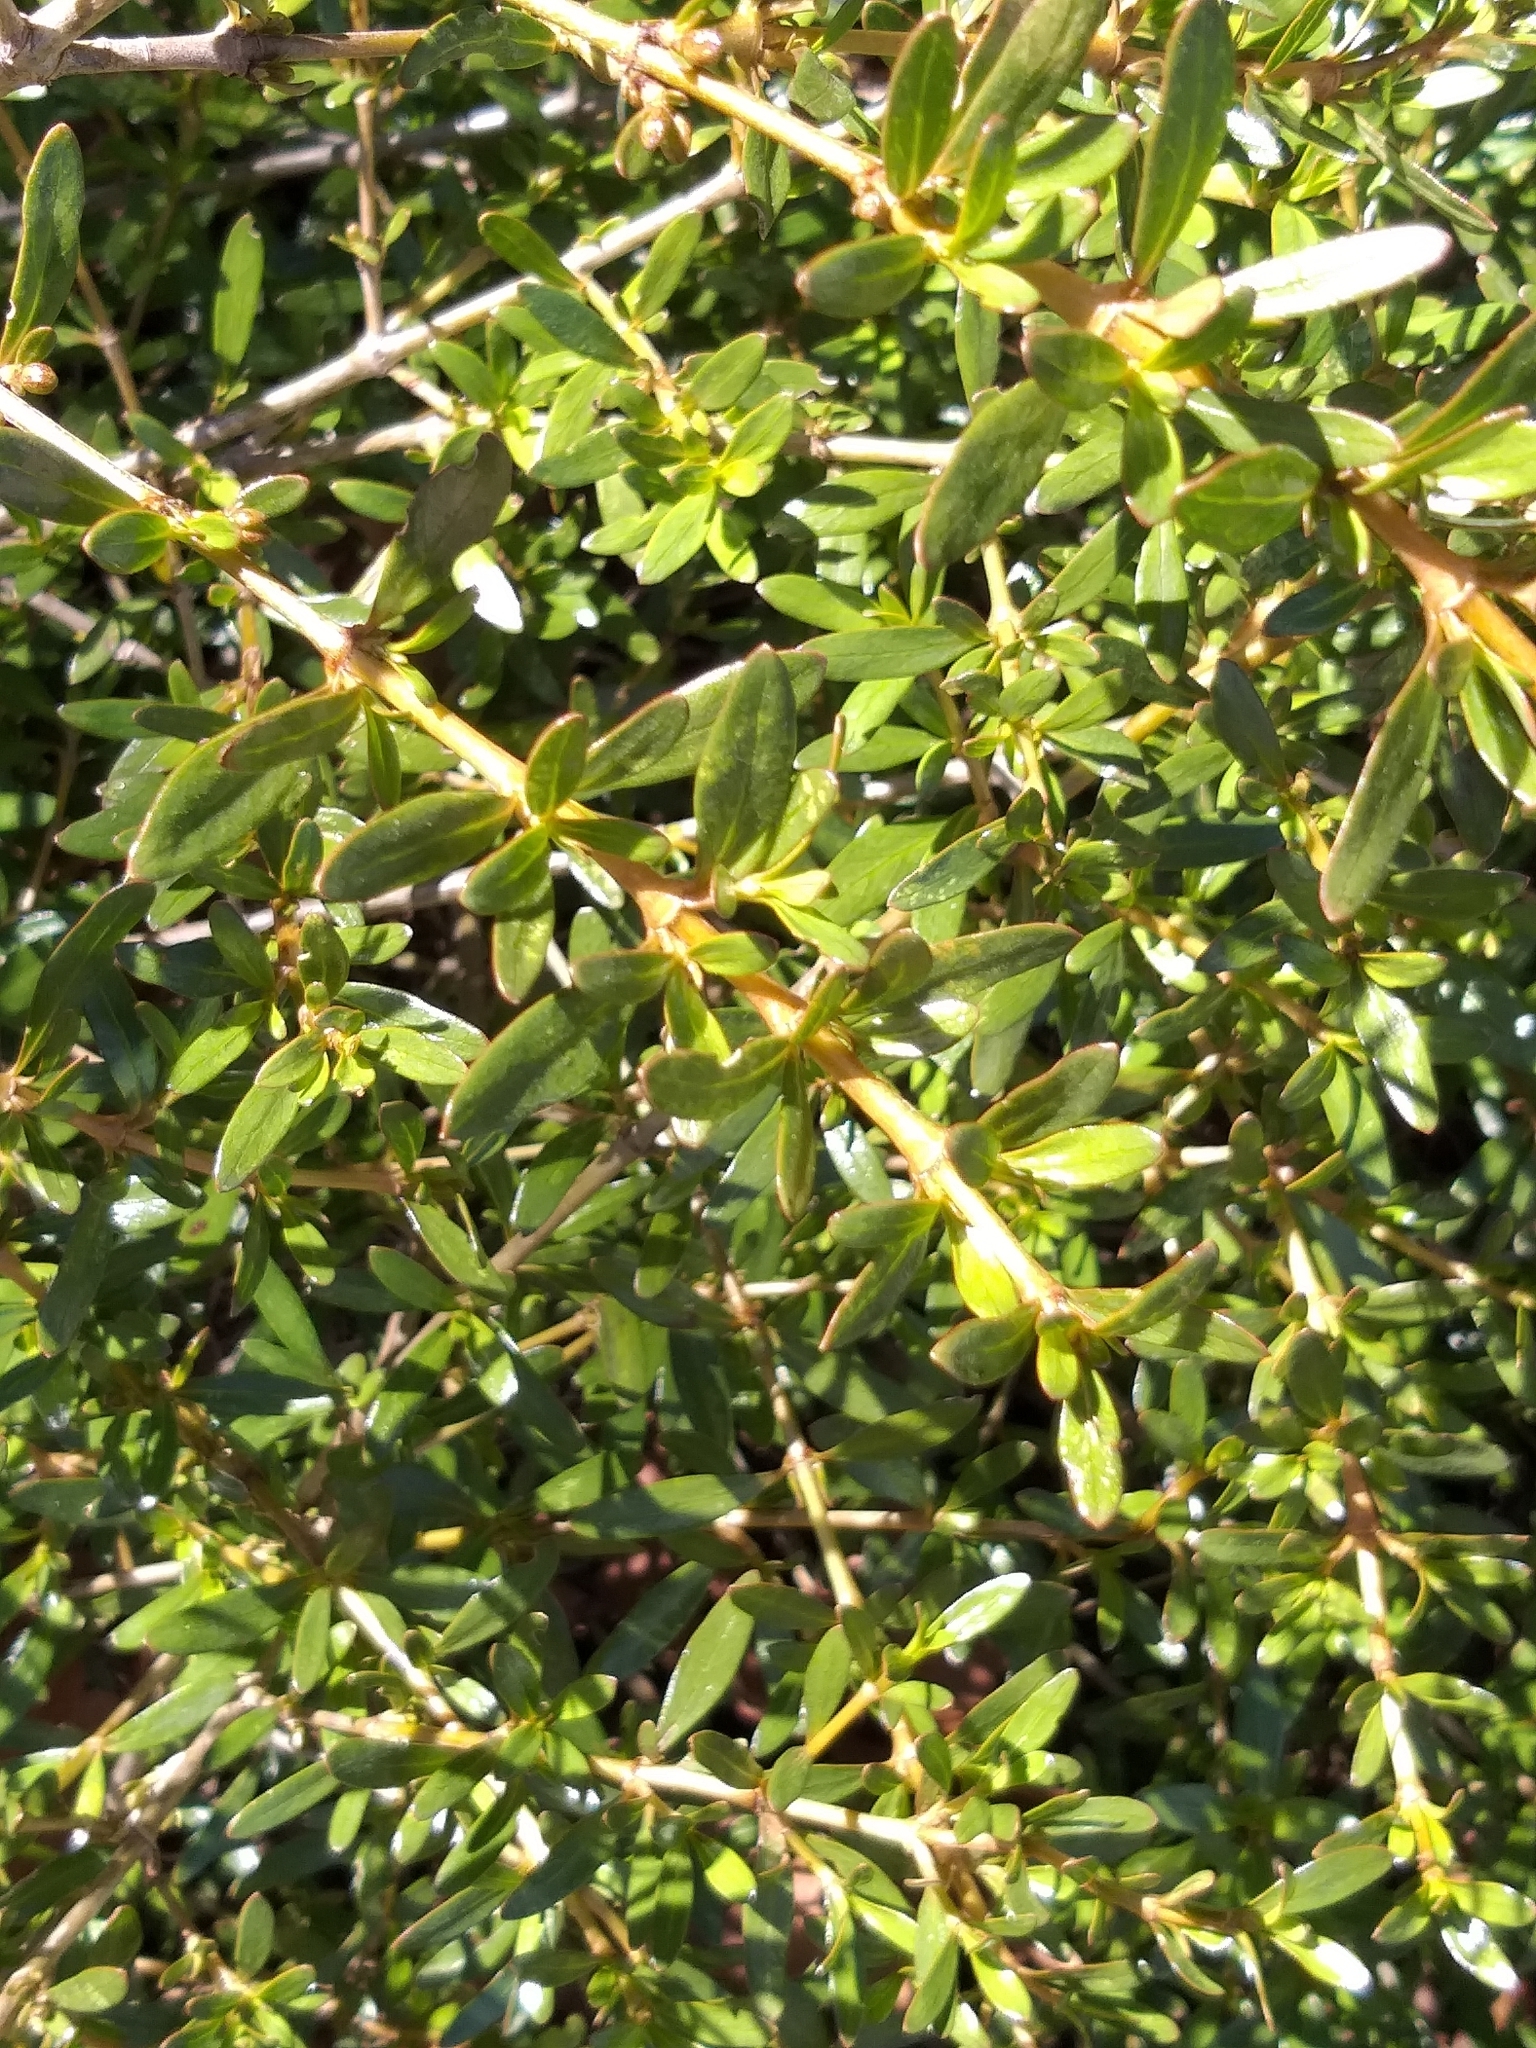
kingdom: Plantae
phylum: Tracheophyta
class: Magnoliopsida
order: Gentianales
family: Rubiaceae
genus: Coprosma
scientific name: Coprosma kirkii
